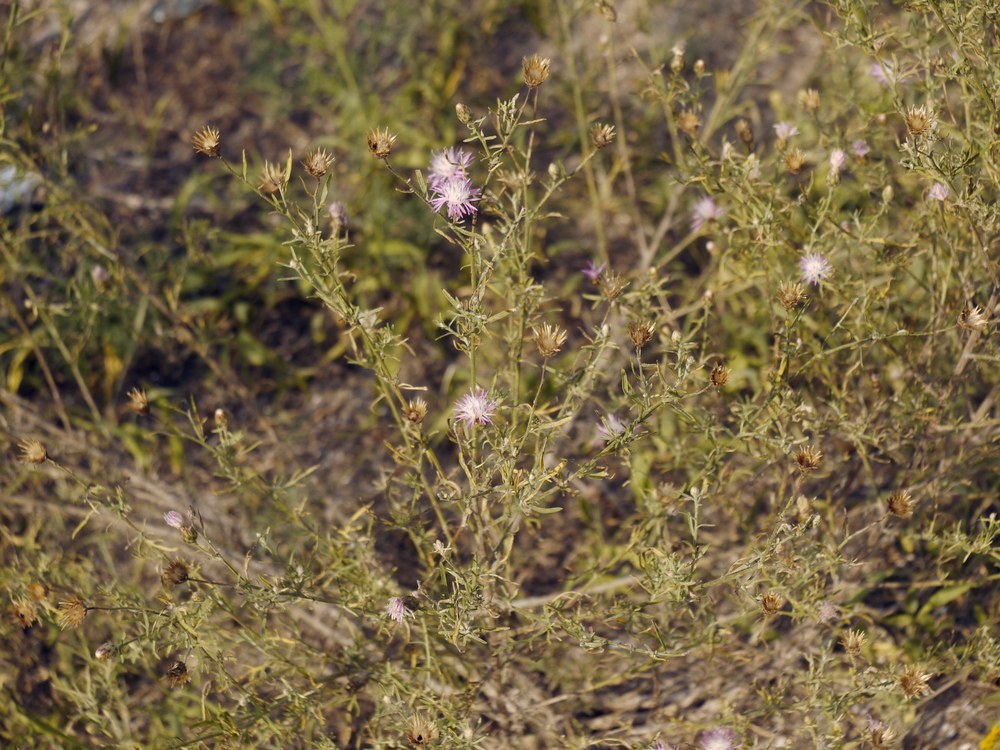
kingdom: Plantae
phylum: Tracheophyta
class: Magnoliopsida
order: Asterales
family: Asteraceae
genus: Centaurea
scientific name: Centaurea borysthenica
